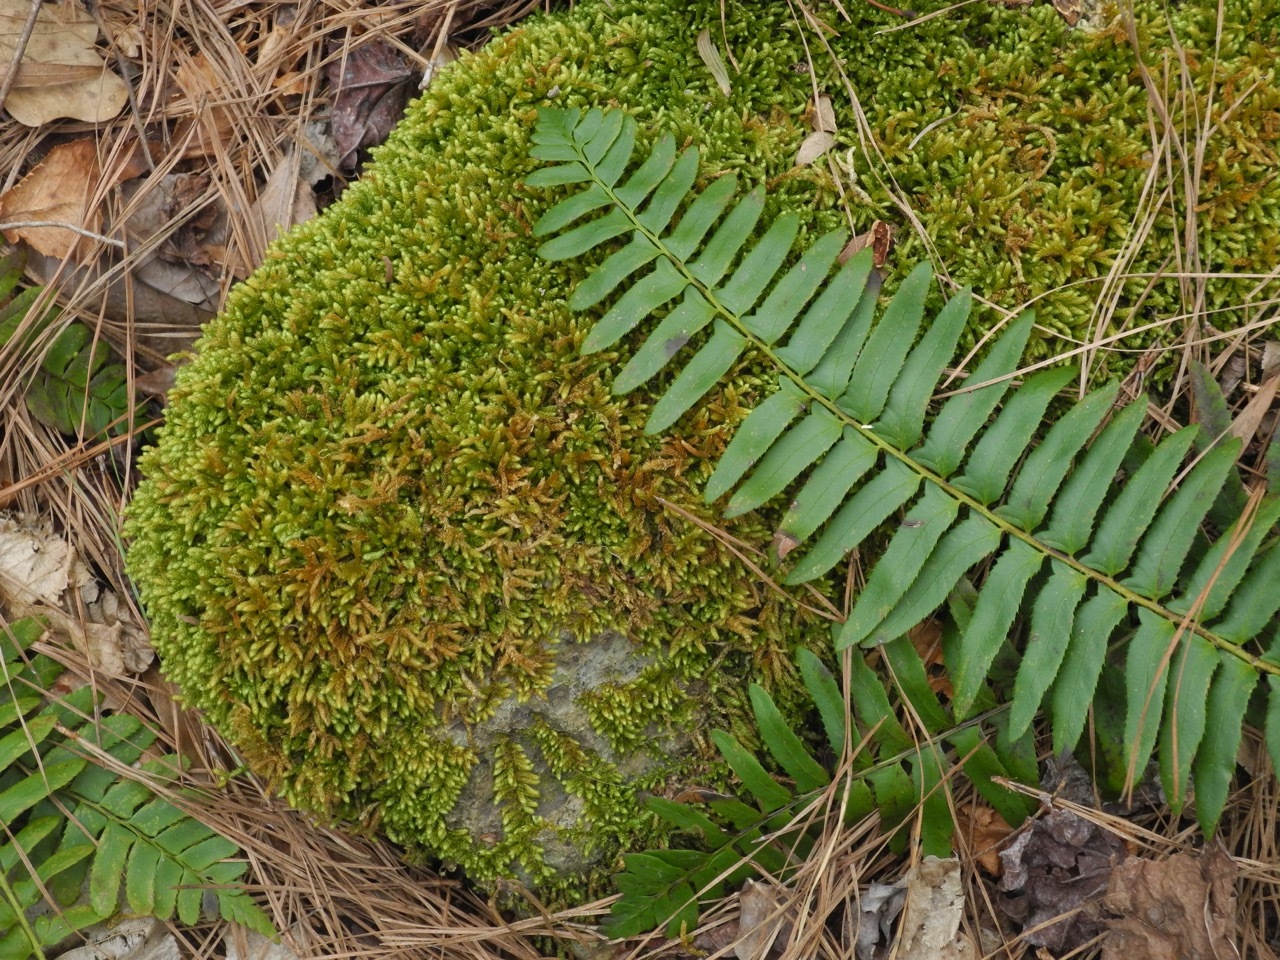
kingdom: Plantae
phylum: Bryophyta
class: Bryopsida
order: Hypnales
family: Brachytheciaceae
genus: Bryoandersonia
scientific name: Bryoandersonia illecebra
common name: Spoon-leaved moss
